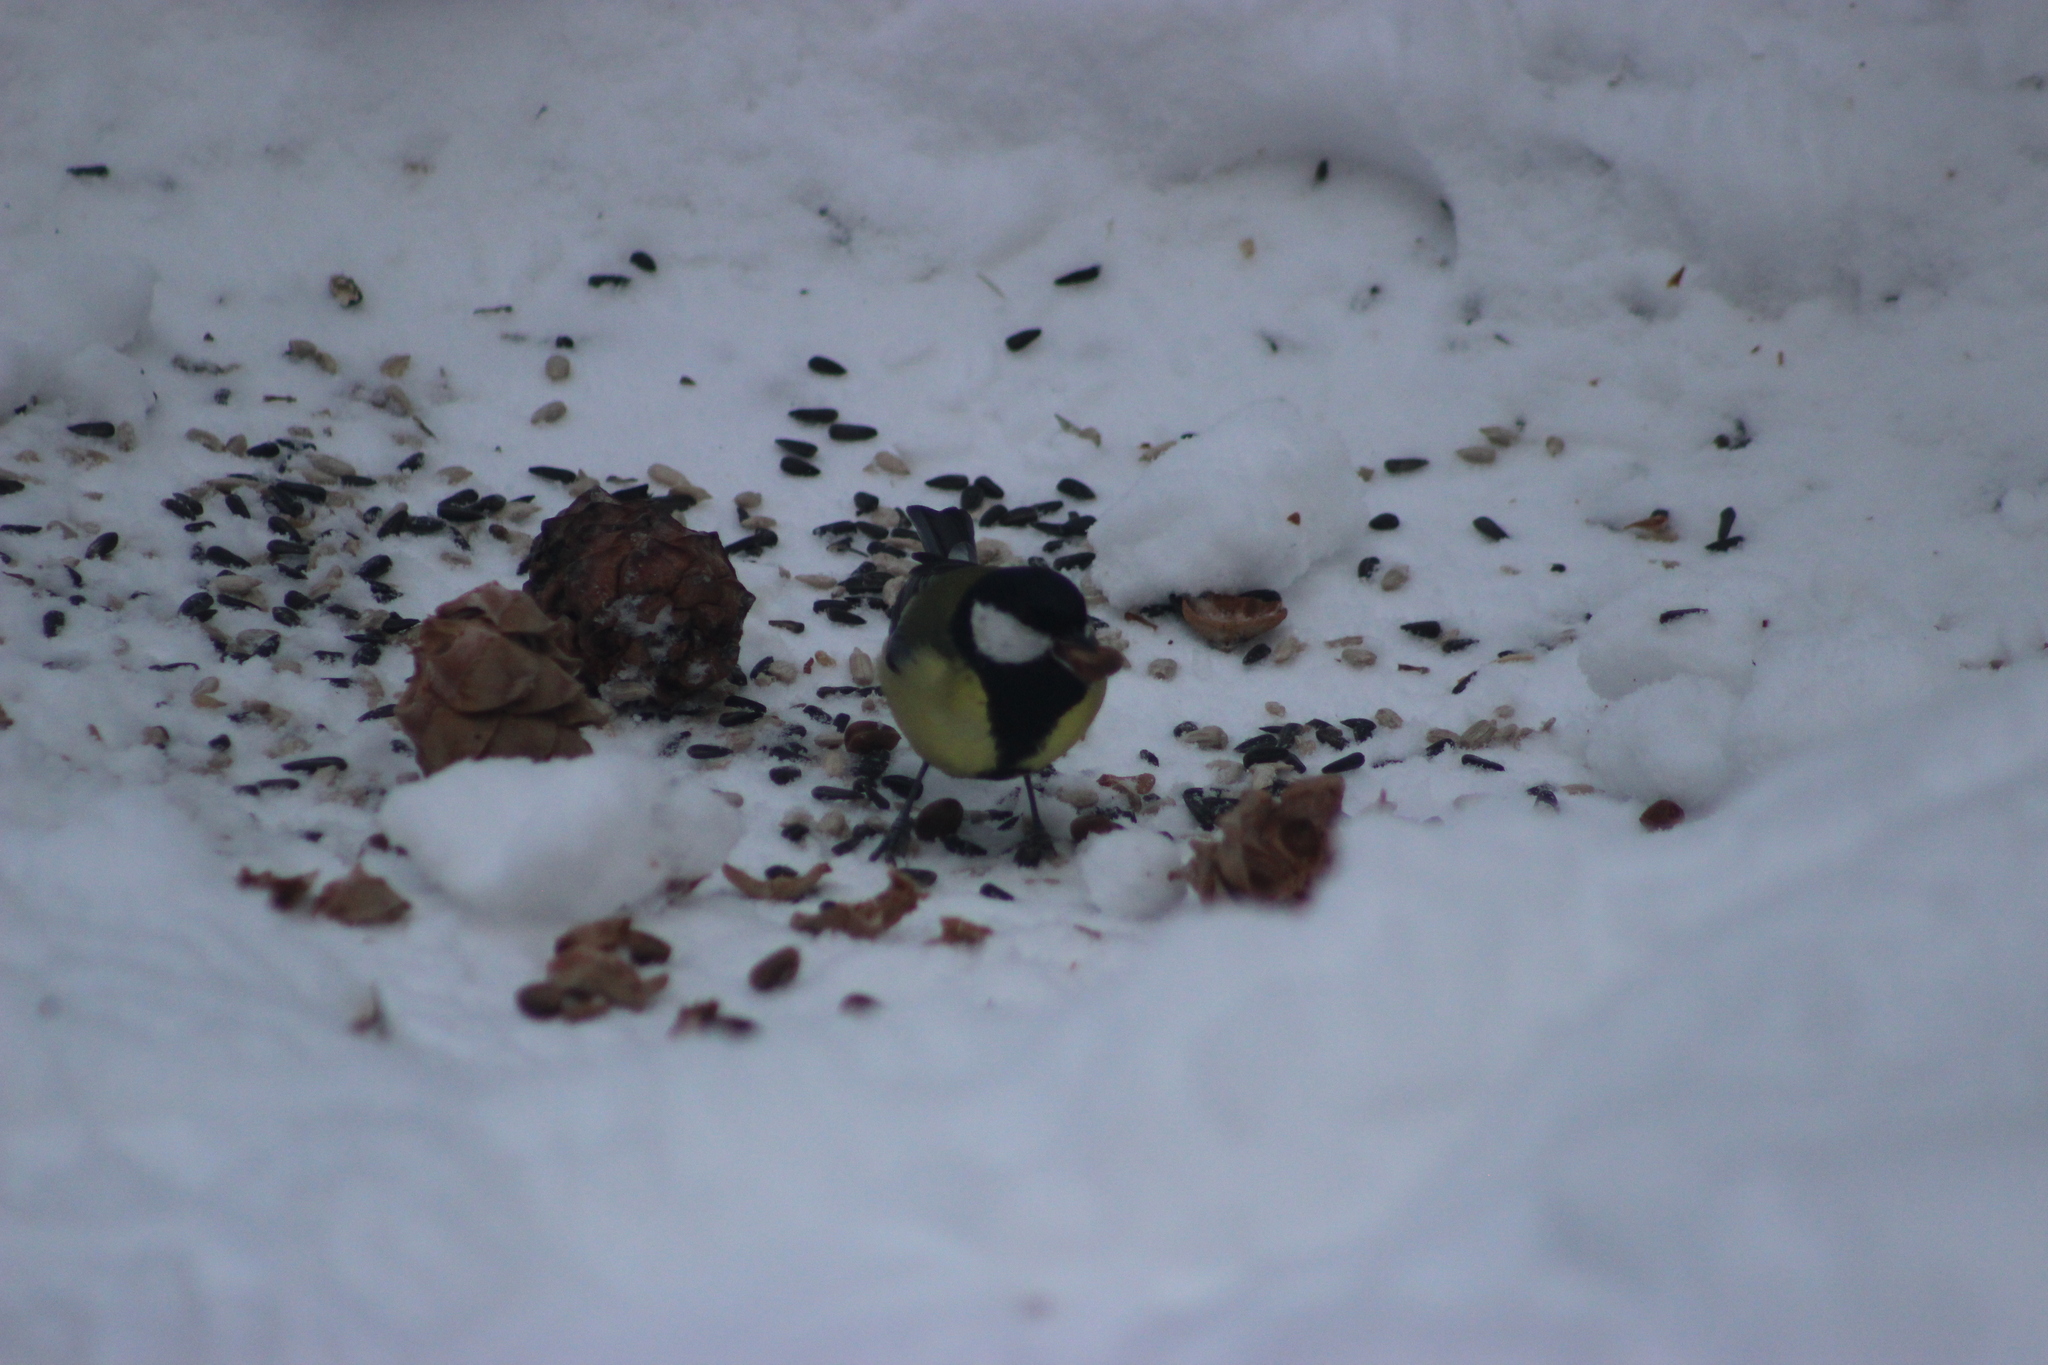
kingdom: Animalia
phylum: Chordata
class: Aves
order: Passeriformes
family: Paridae
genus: Parus
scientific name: Parus major
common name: Great tit
